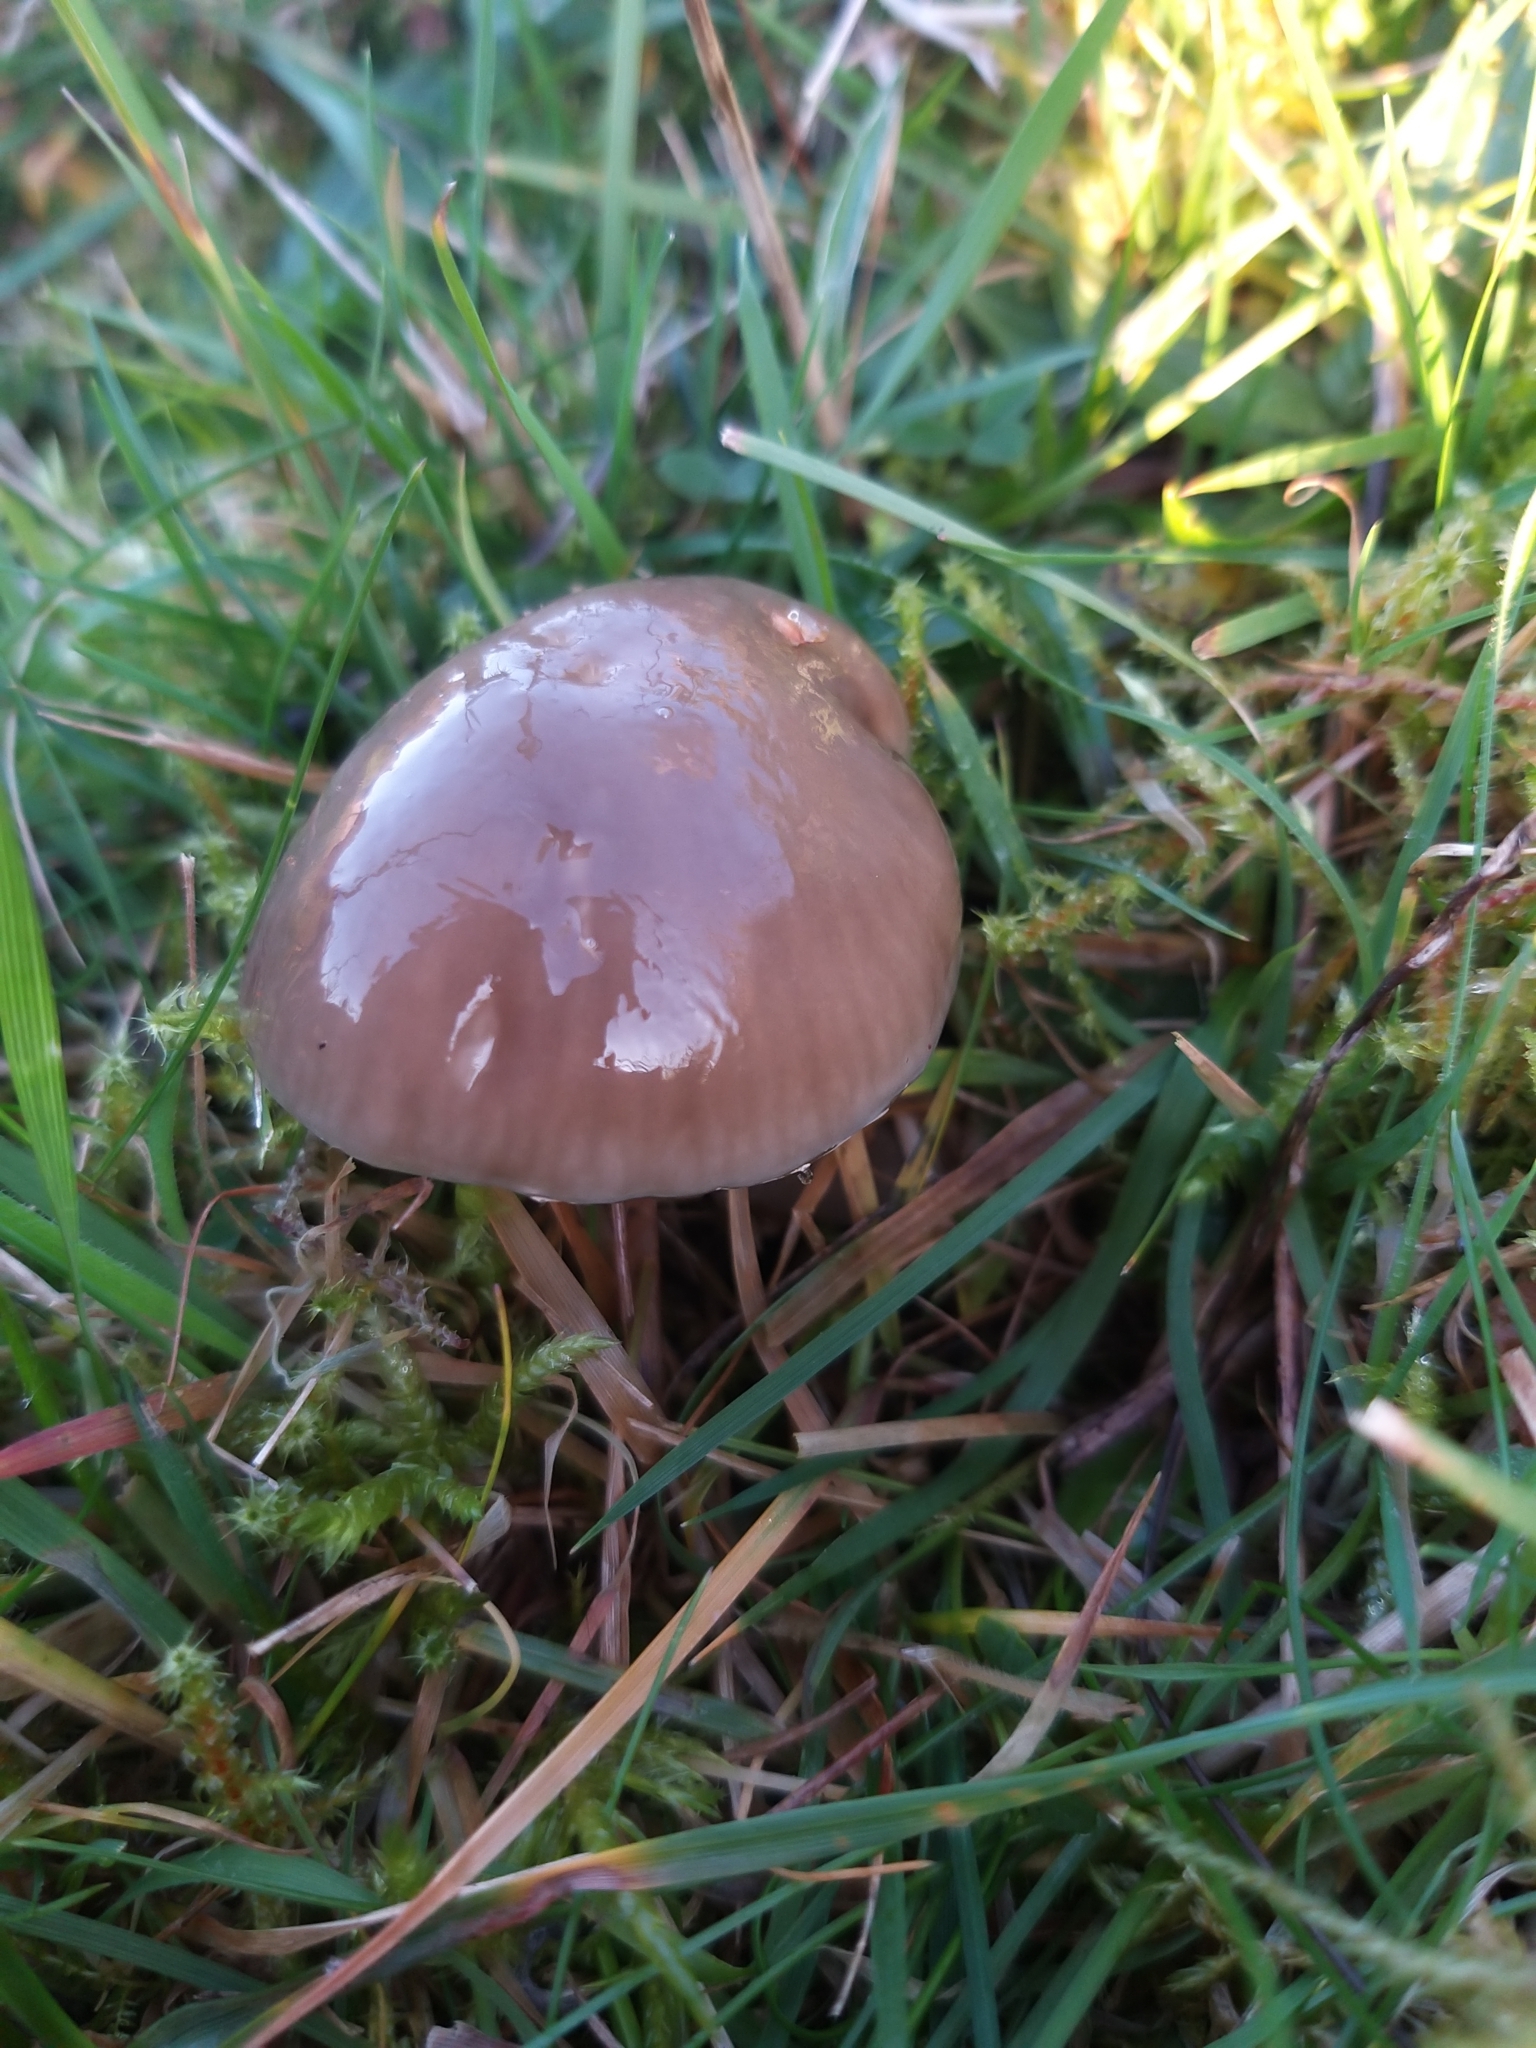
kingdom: Fungi
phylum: Basidiomycota
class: Agaricomycetes
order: Agaricales
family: Hygrophoraceae
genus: Gliophorus
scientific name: Gliophorus irrigatus
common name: Slimy waxcap
